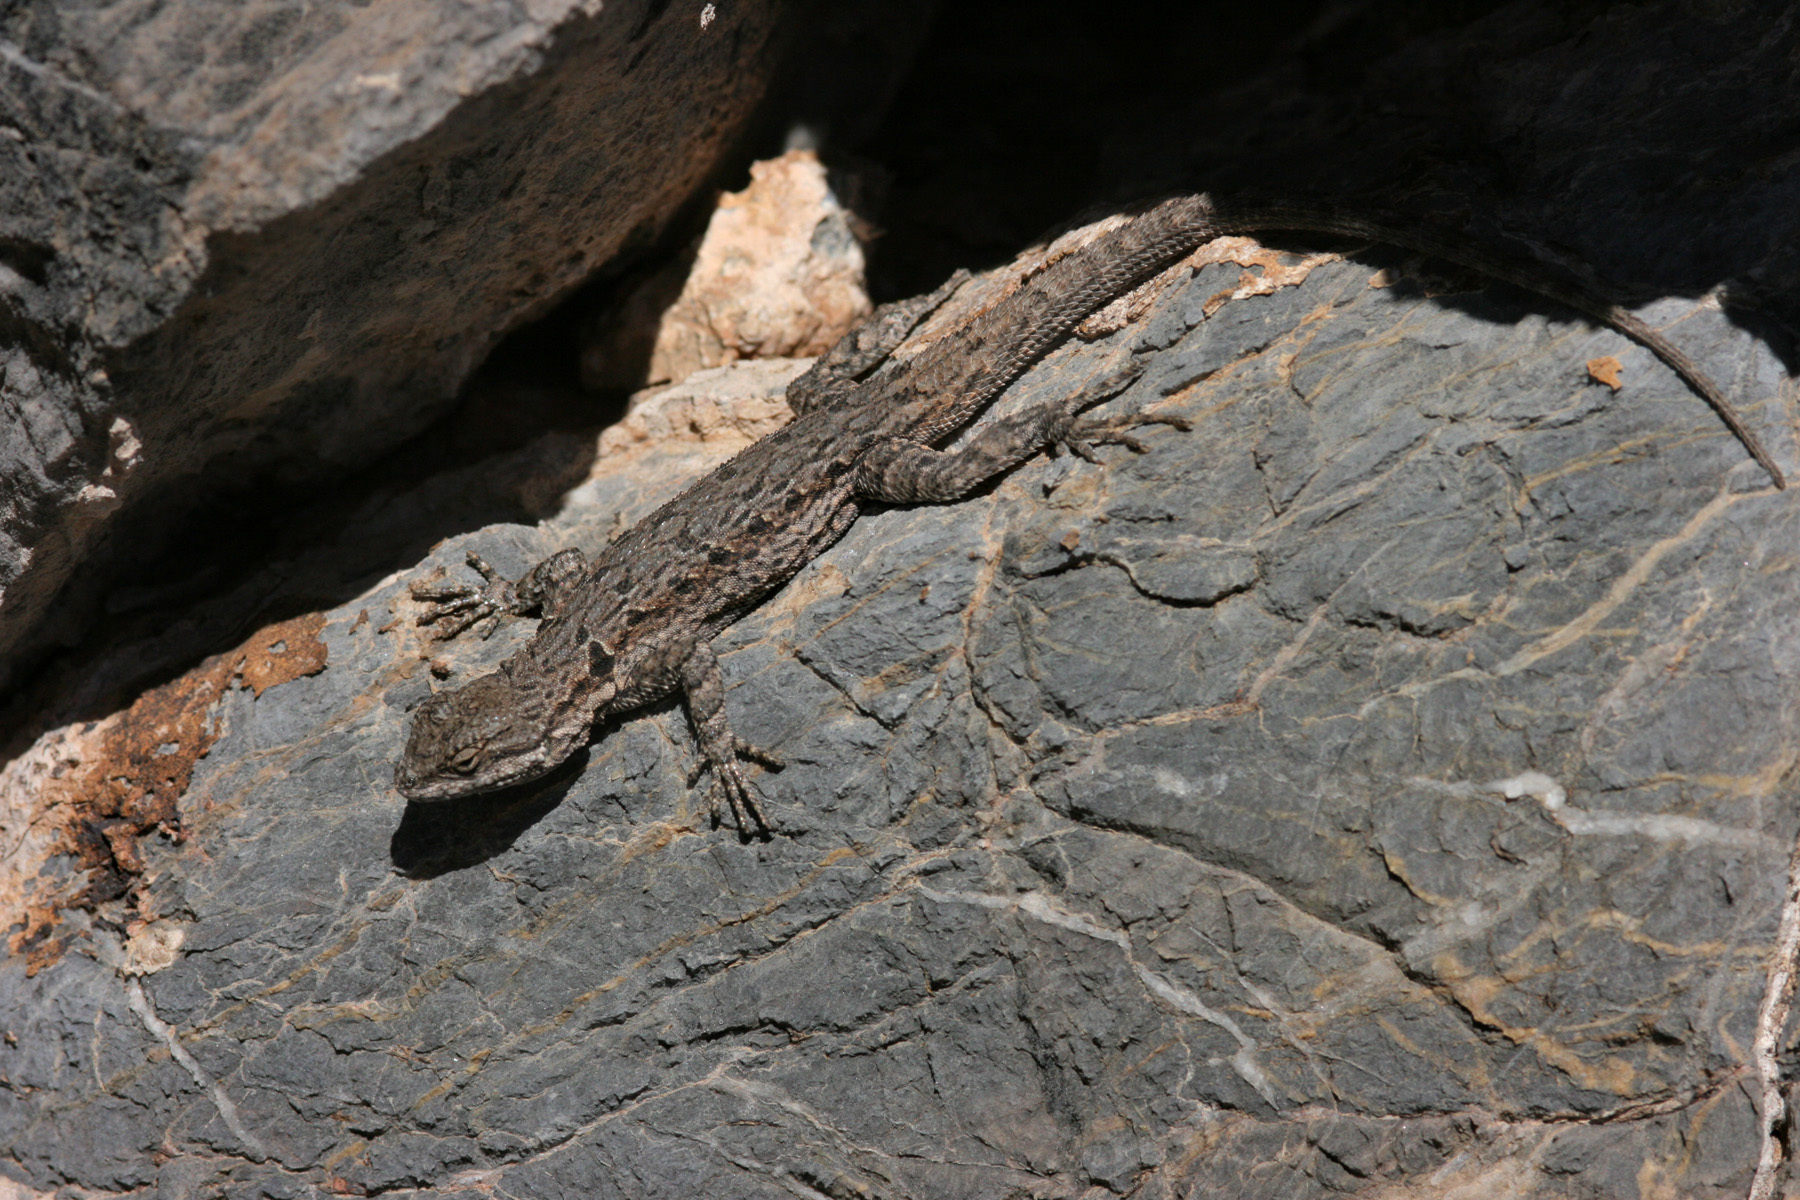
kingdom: Animalia
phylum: Chordata
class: Squamata
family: Phrynosomatidae
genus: Urosaurus
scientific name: Urosaurus ornatus
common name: Ornate tree lizard
